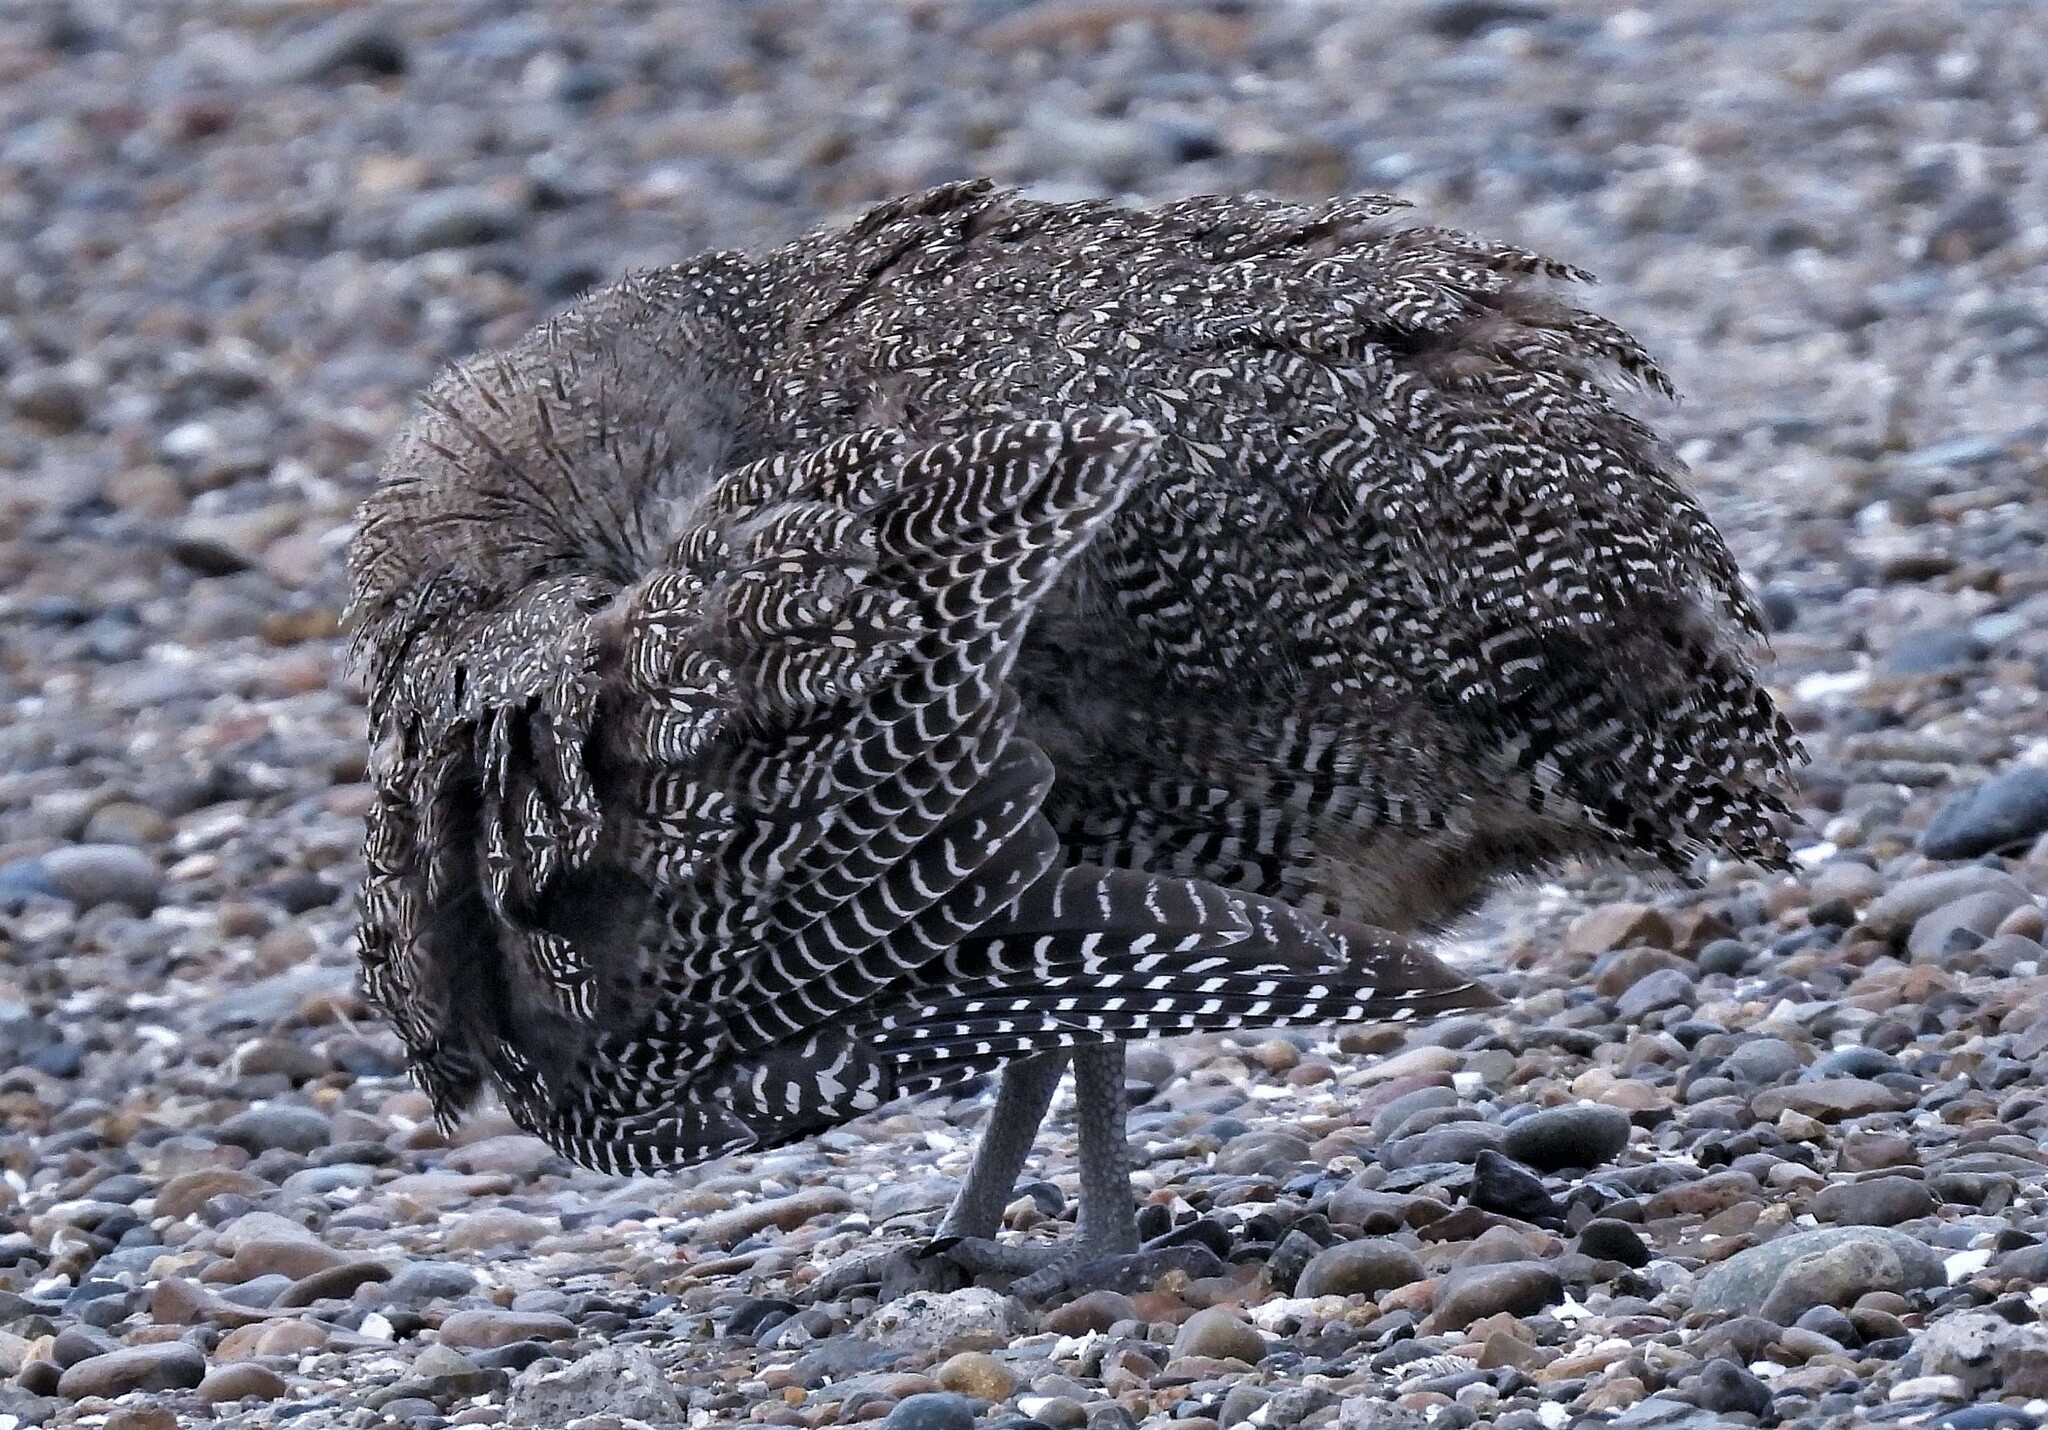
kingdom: Animalia
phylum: Chordata
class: Aves
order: Tinamiformes
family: Tinamidae
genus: Eudromia
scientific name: Eudromia elegans
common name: Elegant crested tinamou
